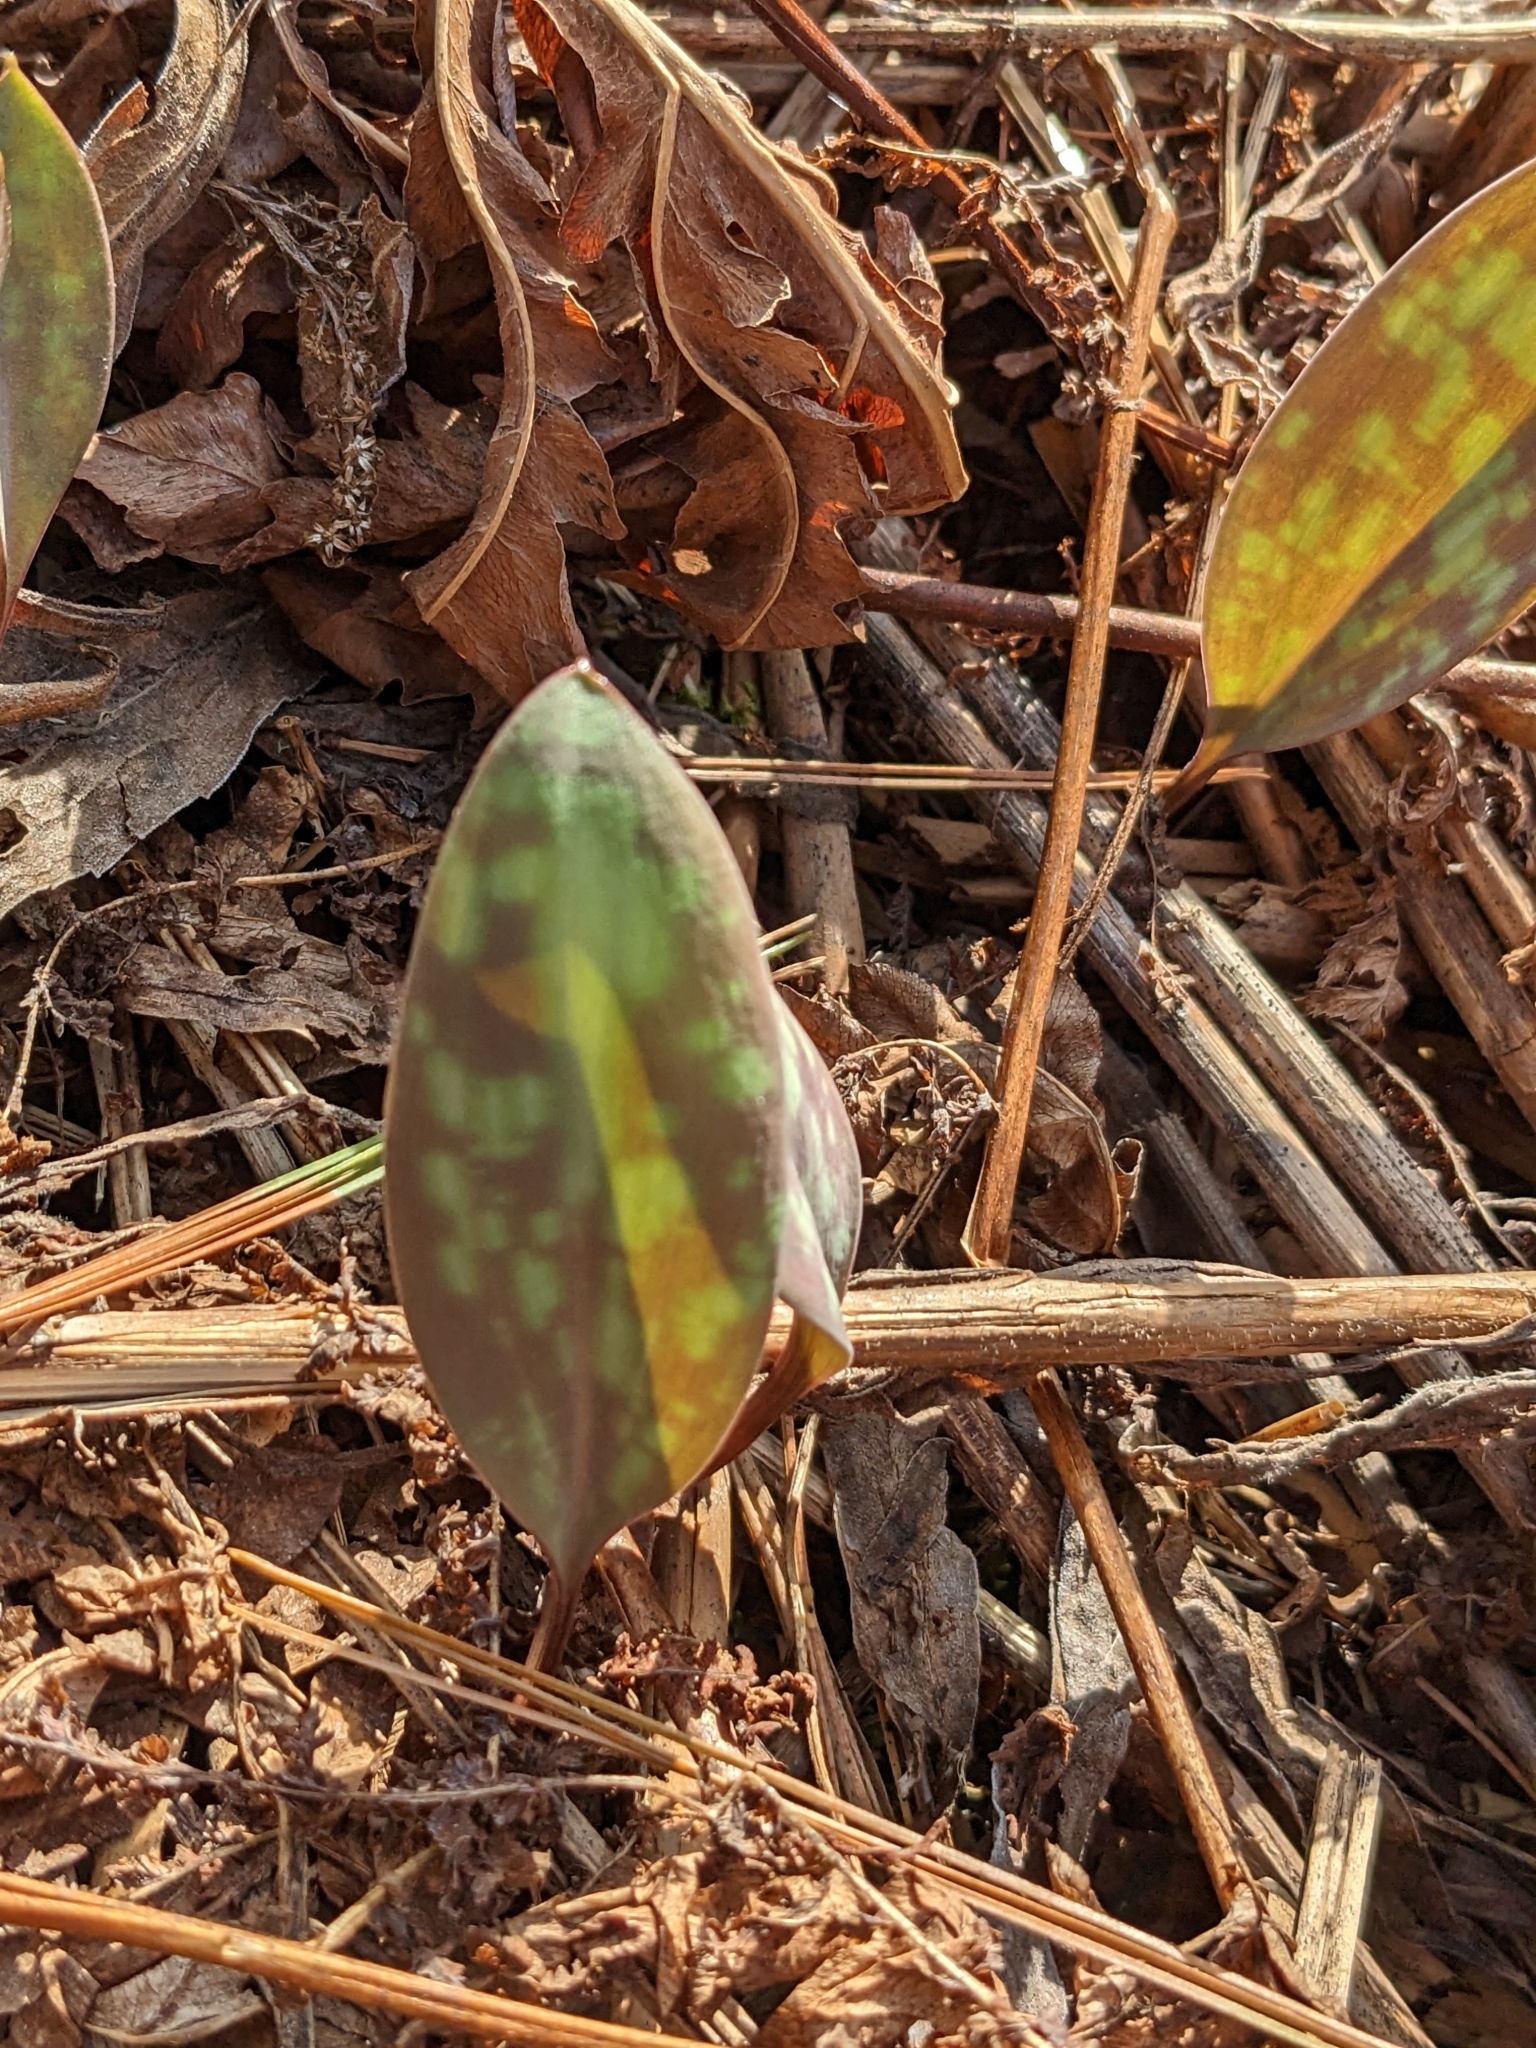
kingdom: Plantae
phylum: Tracheophyta
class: Liliopsida
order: Liliales
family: Liliaceae
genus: Erythronium
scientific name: Erythronium americanum
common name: Yellow adder's-tongue
